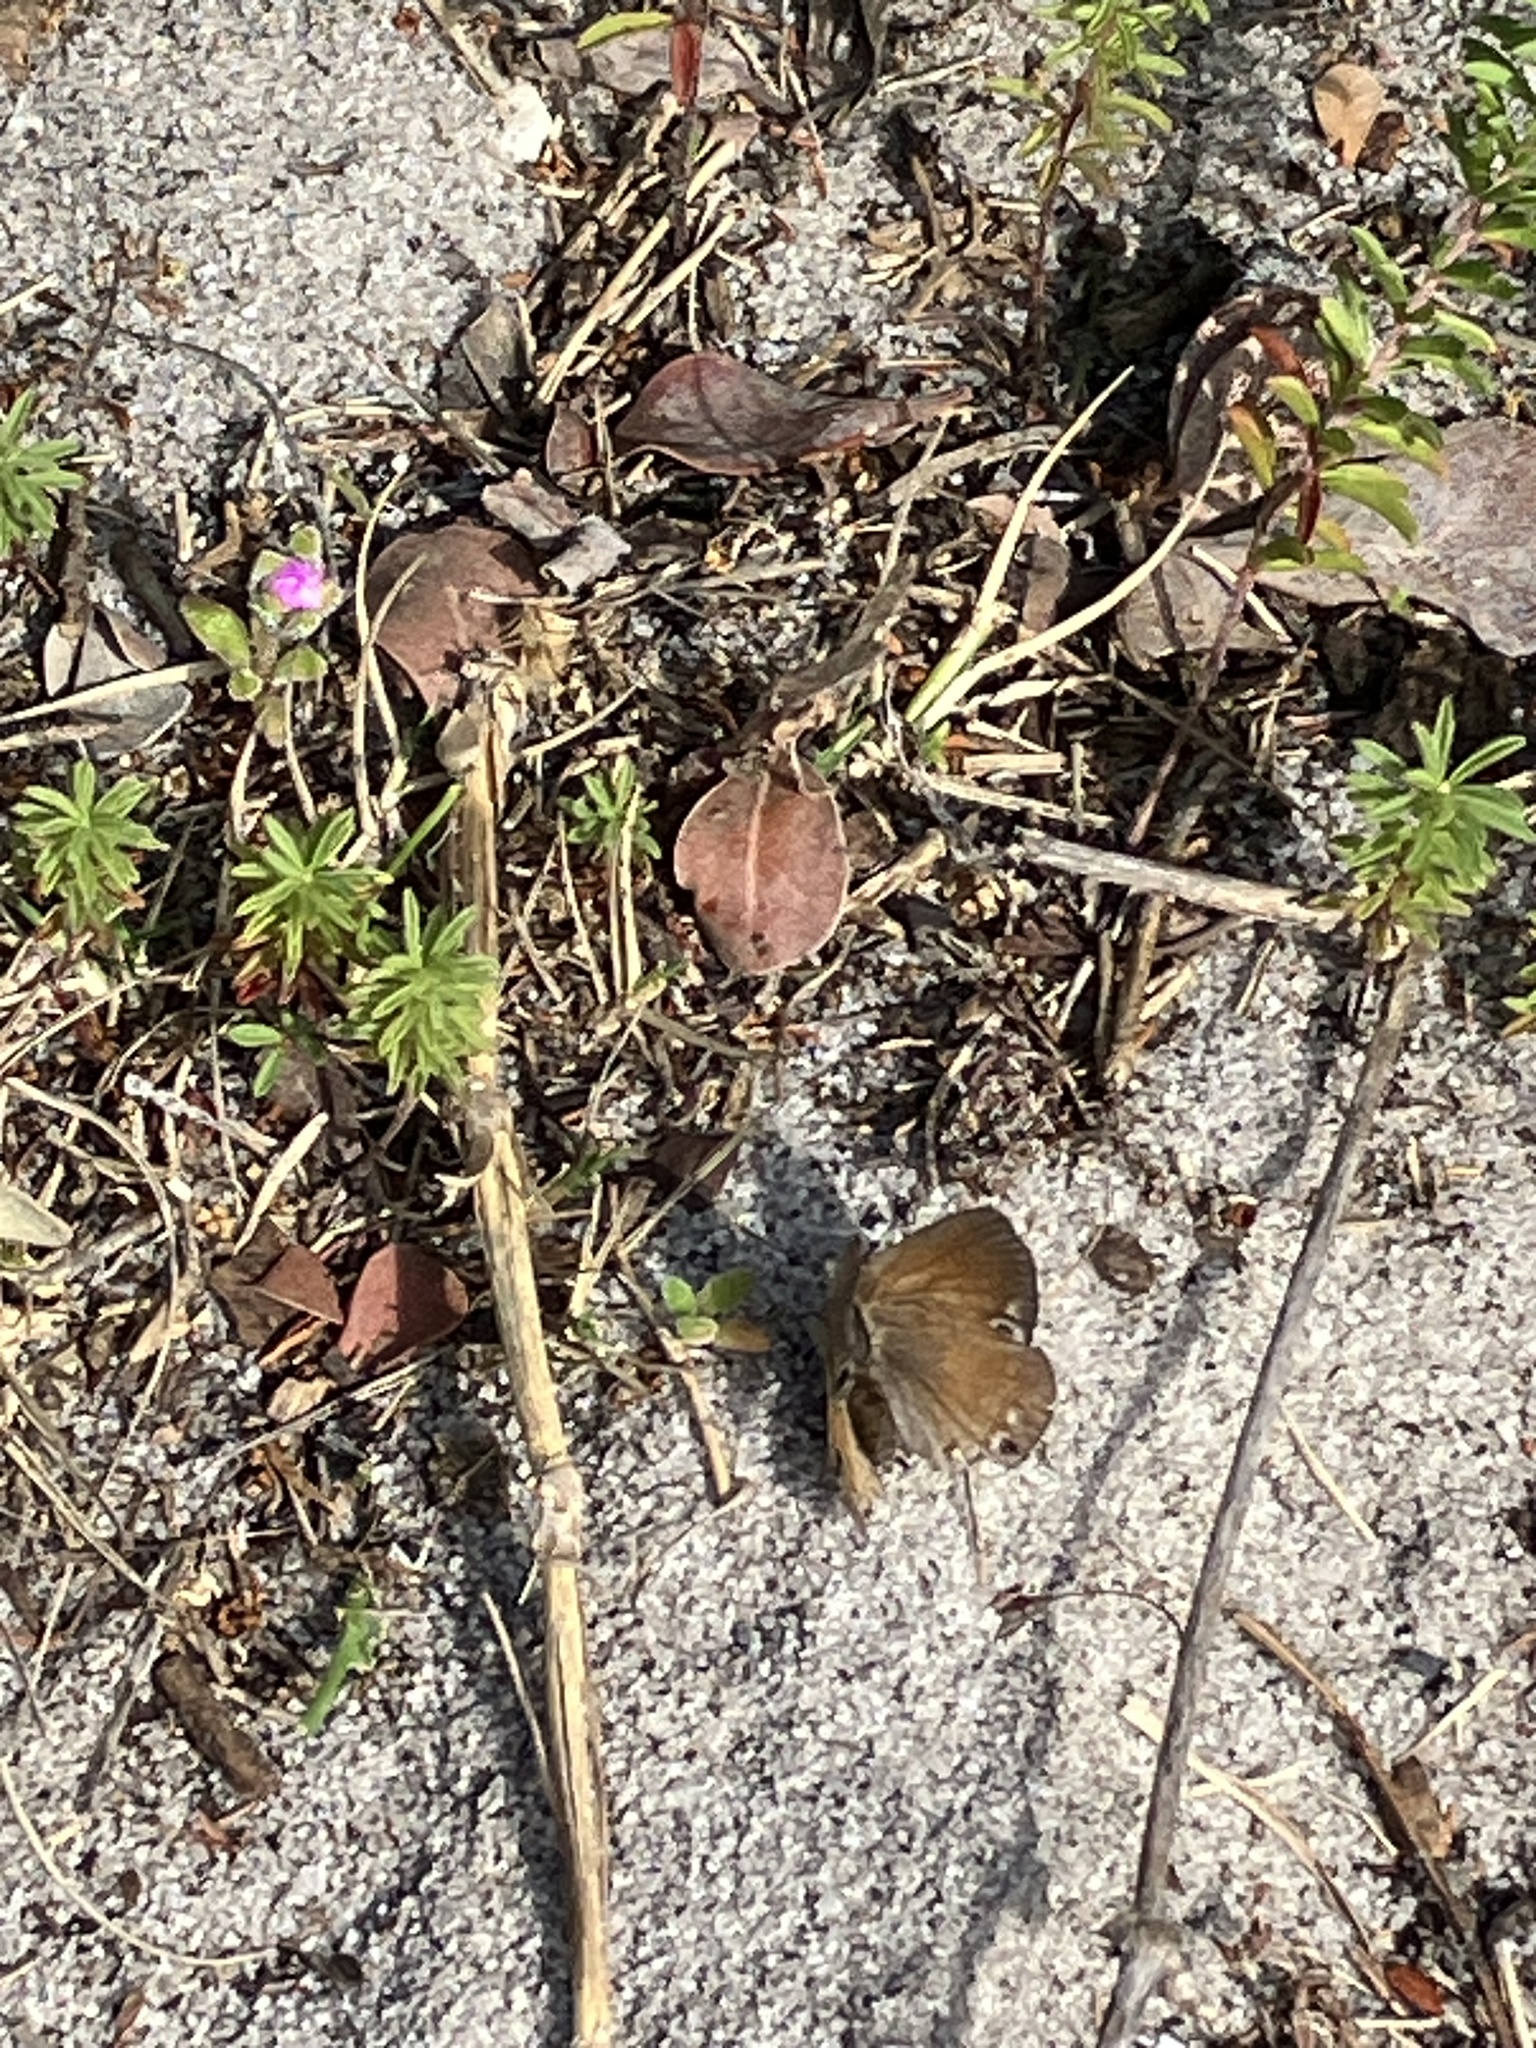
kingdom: Animalia
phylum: Arthropoda
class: Insecta
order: Lepidoptera
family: Lycaenidae
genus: Leptomyrina
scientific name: Leptomyrina lara
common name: Cape black-eye
